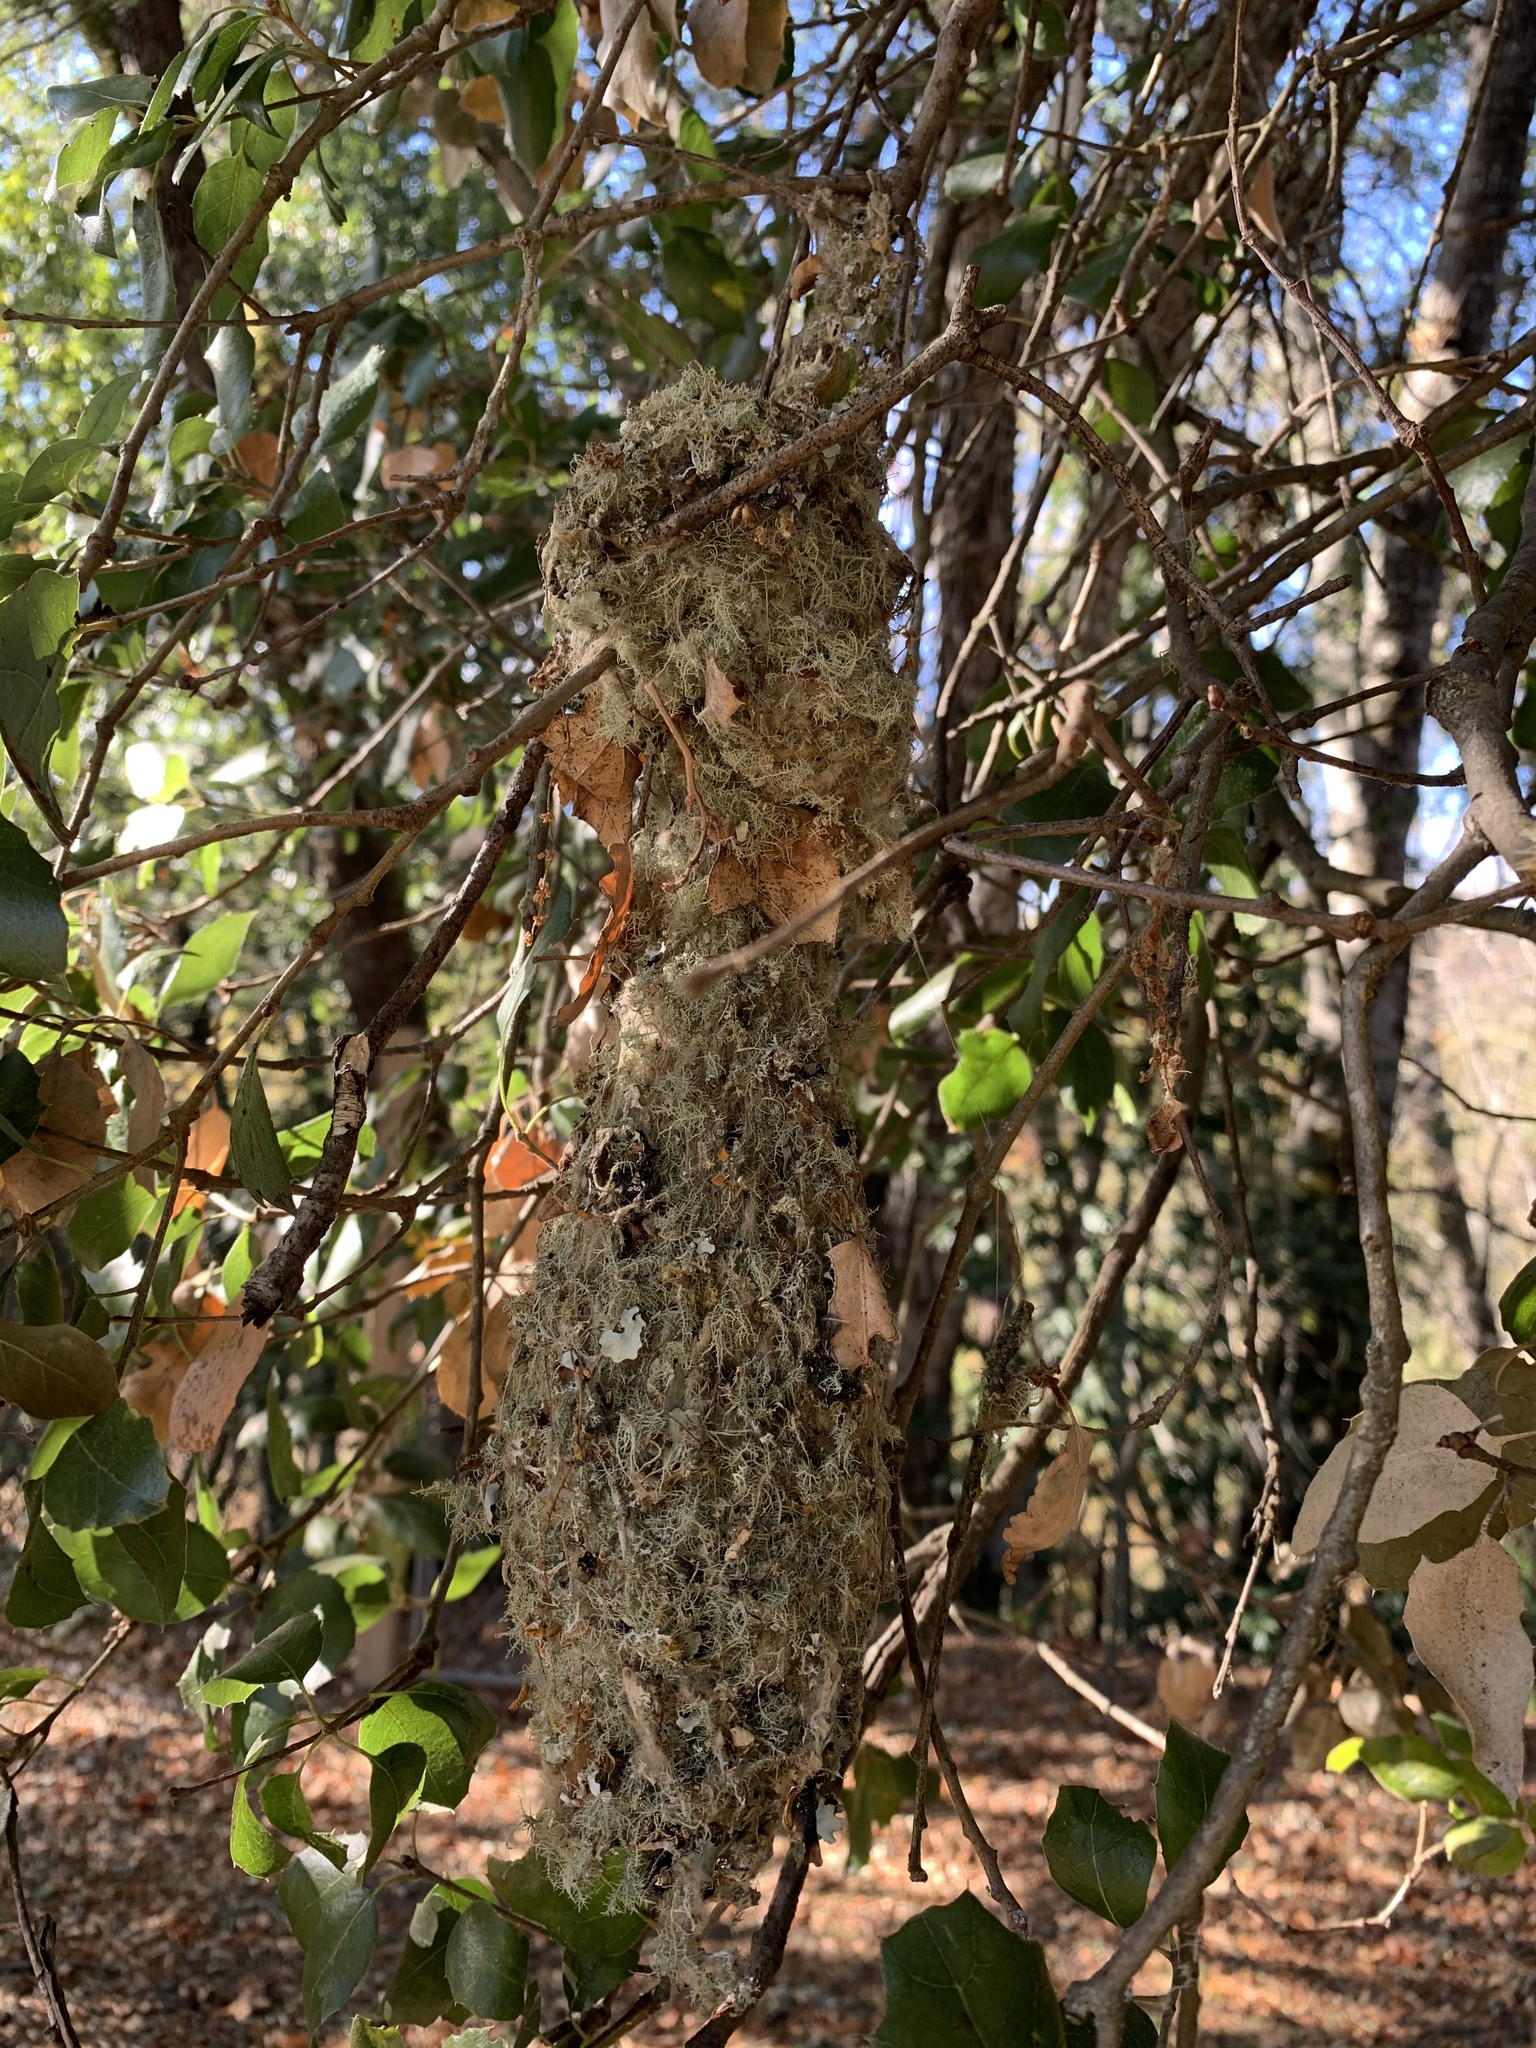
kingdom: Animalia
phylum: Chordata
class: Aves
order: Passeriformes
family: Aegithalidae
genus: Psaltriparus
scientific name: Psaltriparus minimus
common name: American bushtit
